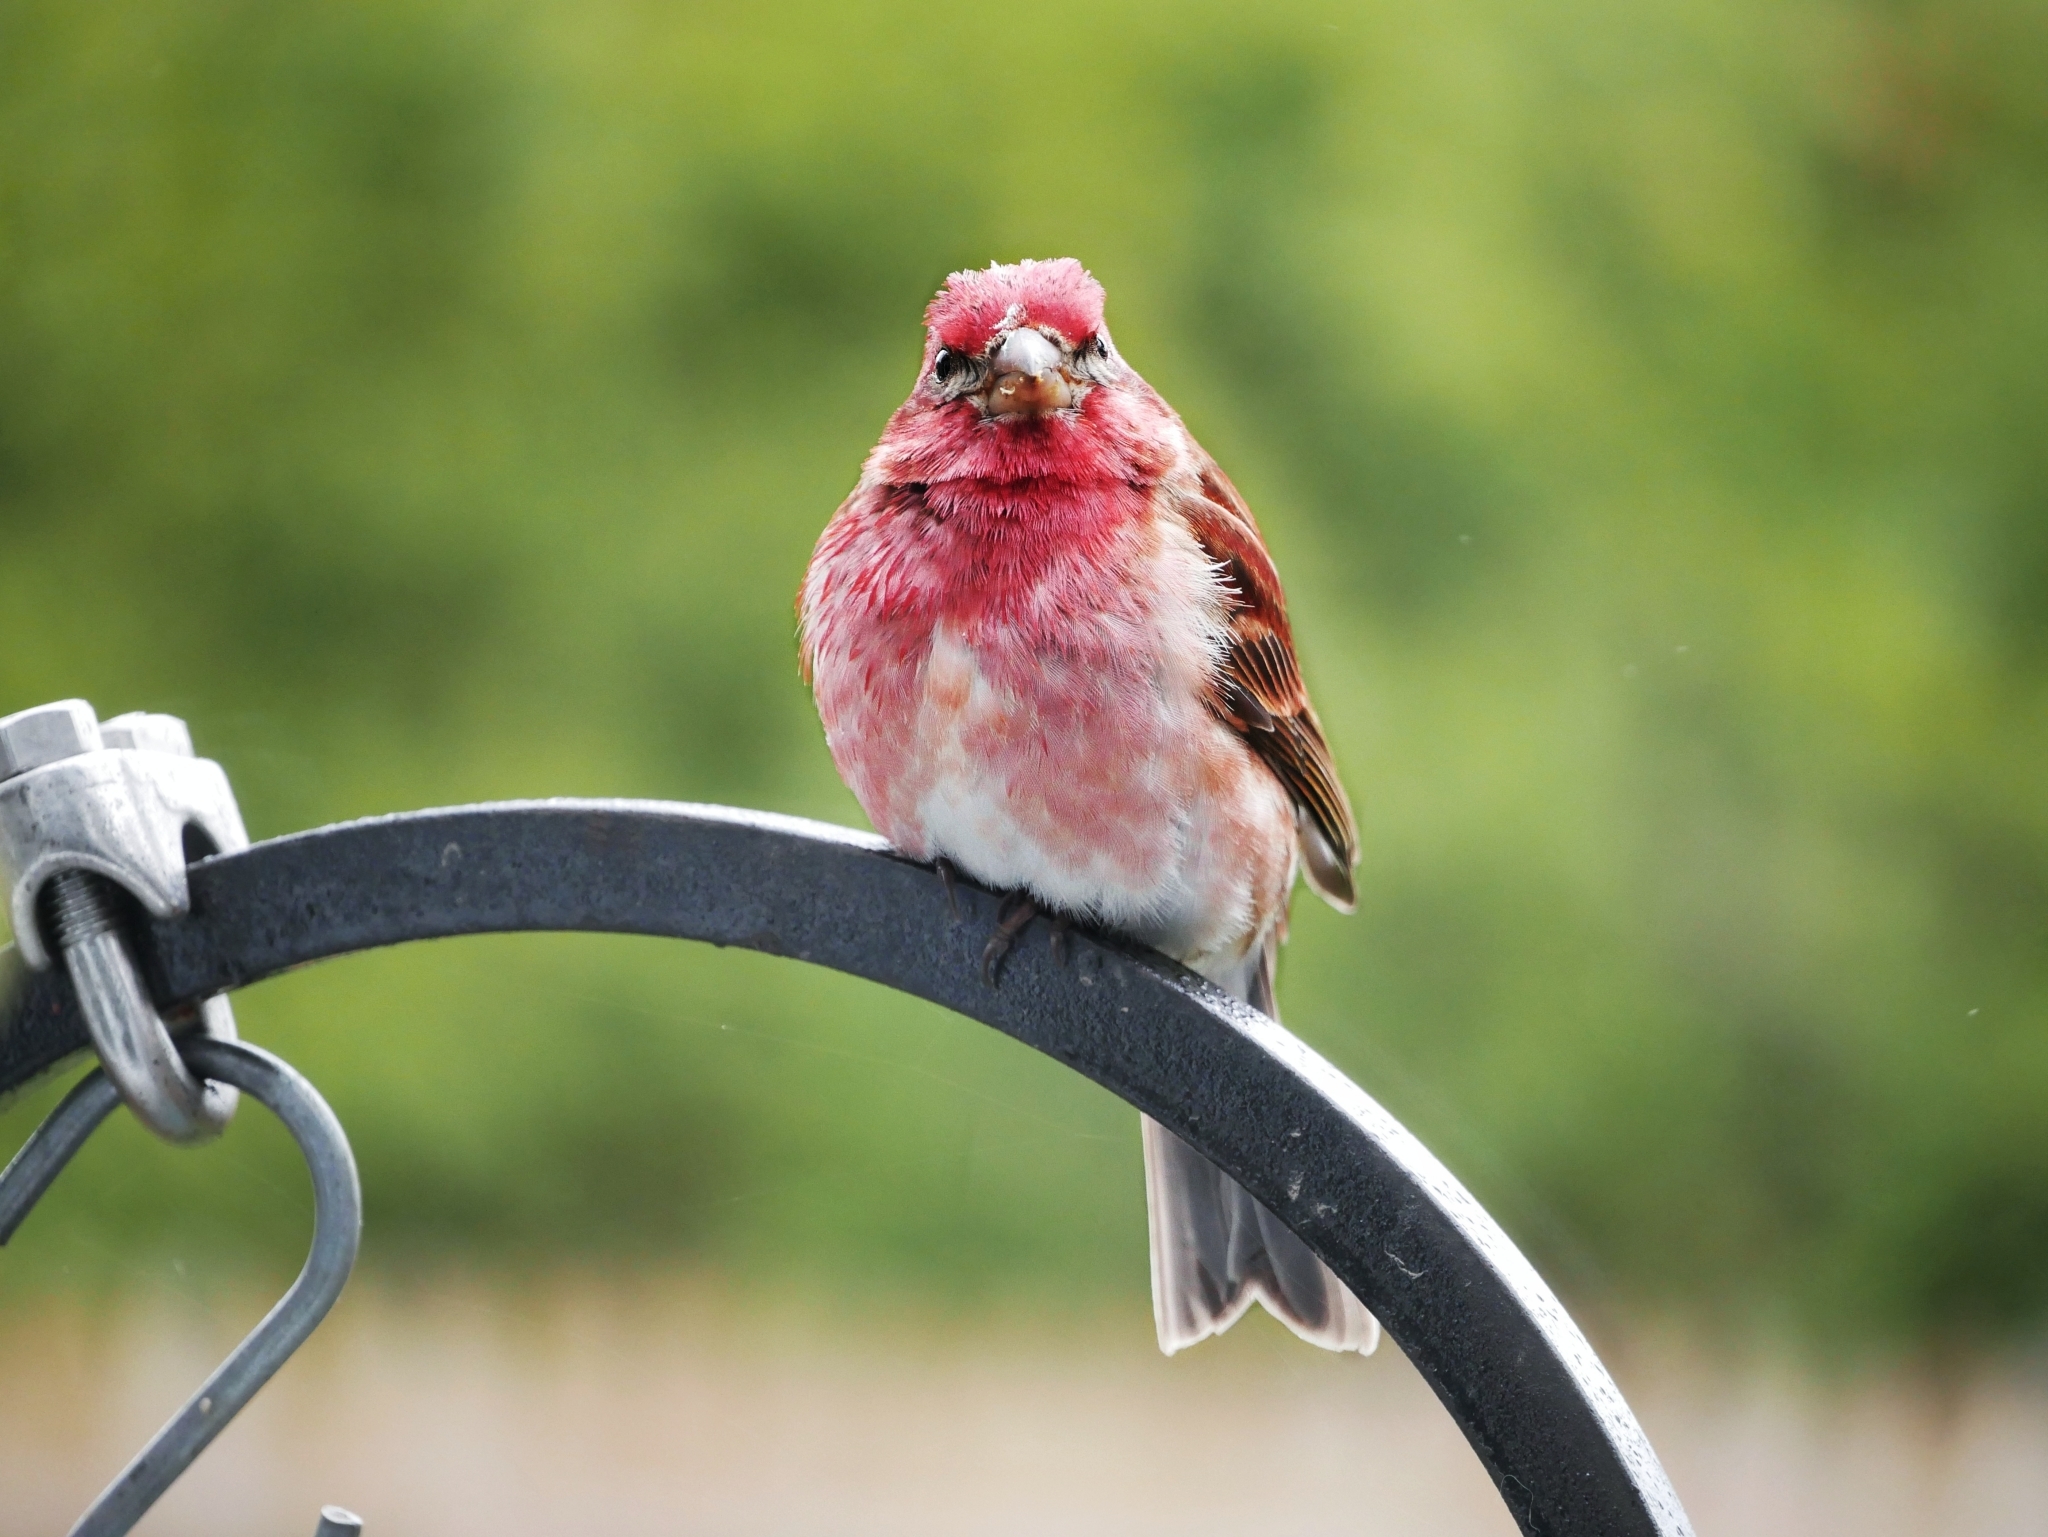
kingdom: Animalia
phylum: Chordata
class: Aves
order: Passeriformes
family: Fringillidae
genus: Haemorhous
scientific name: Haemorhous purpureus
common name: Purple finch
